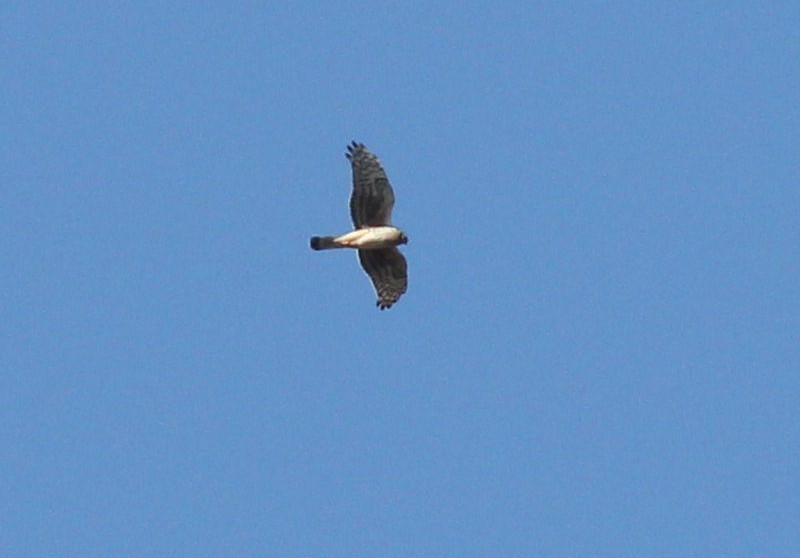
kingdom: Animalia
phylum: Chordata
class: Aves
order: Accipitriformes
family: Accipitridae
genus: Circus
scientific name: Circus cyaneus
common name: Hen harrier
